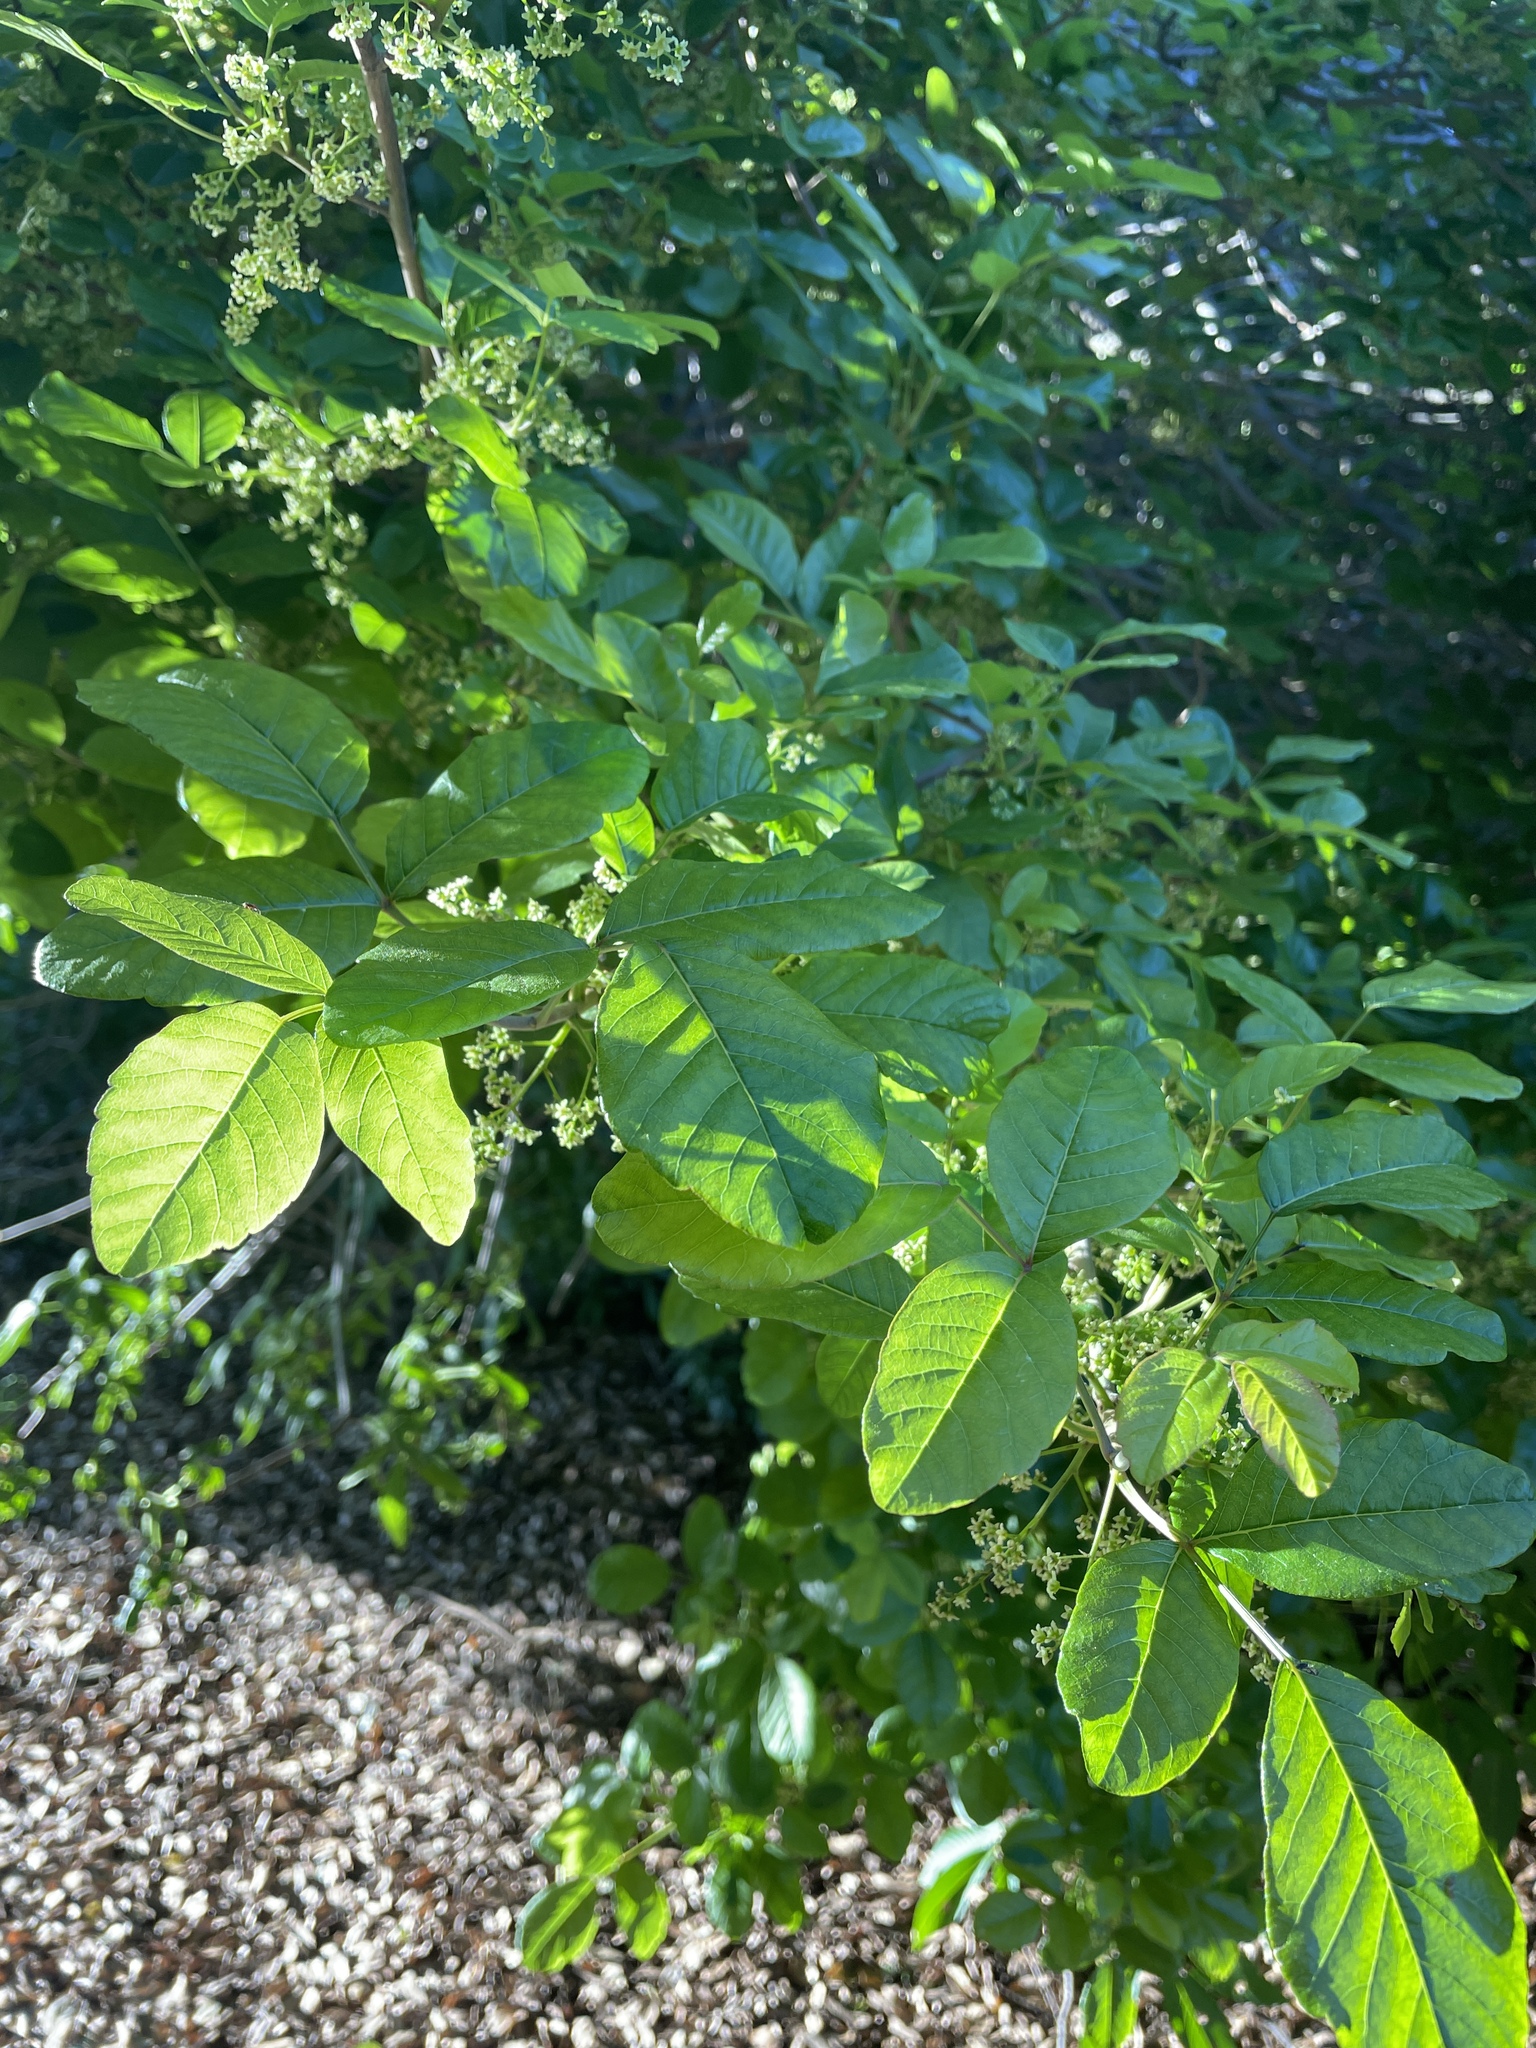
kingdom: Plantae
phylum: Tracheophyta
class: Magnoliopsida
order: Sapindales
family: Anacardiaceae
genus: Toxicodendron
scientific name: Toxicodendron diversilobum
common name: Pacific poison-oak
